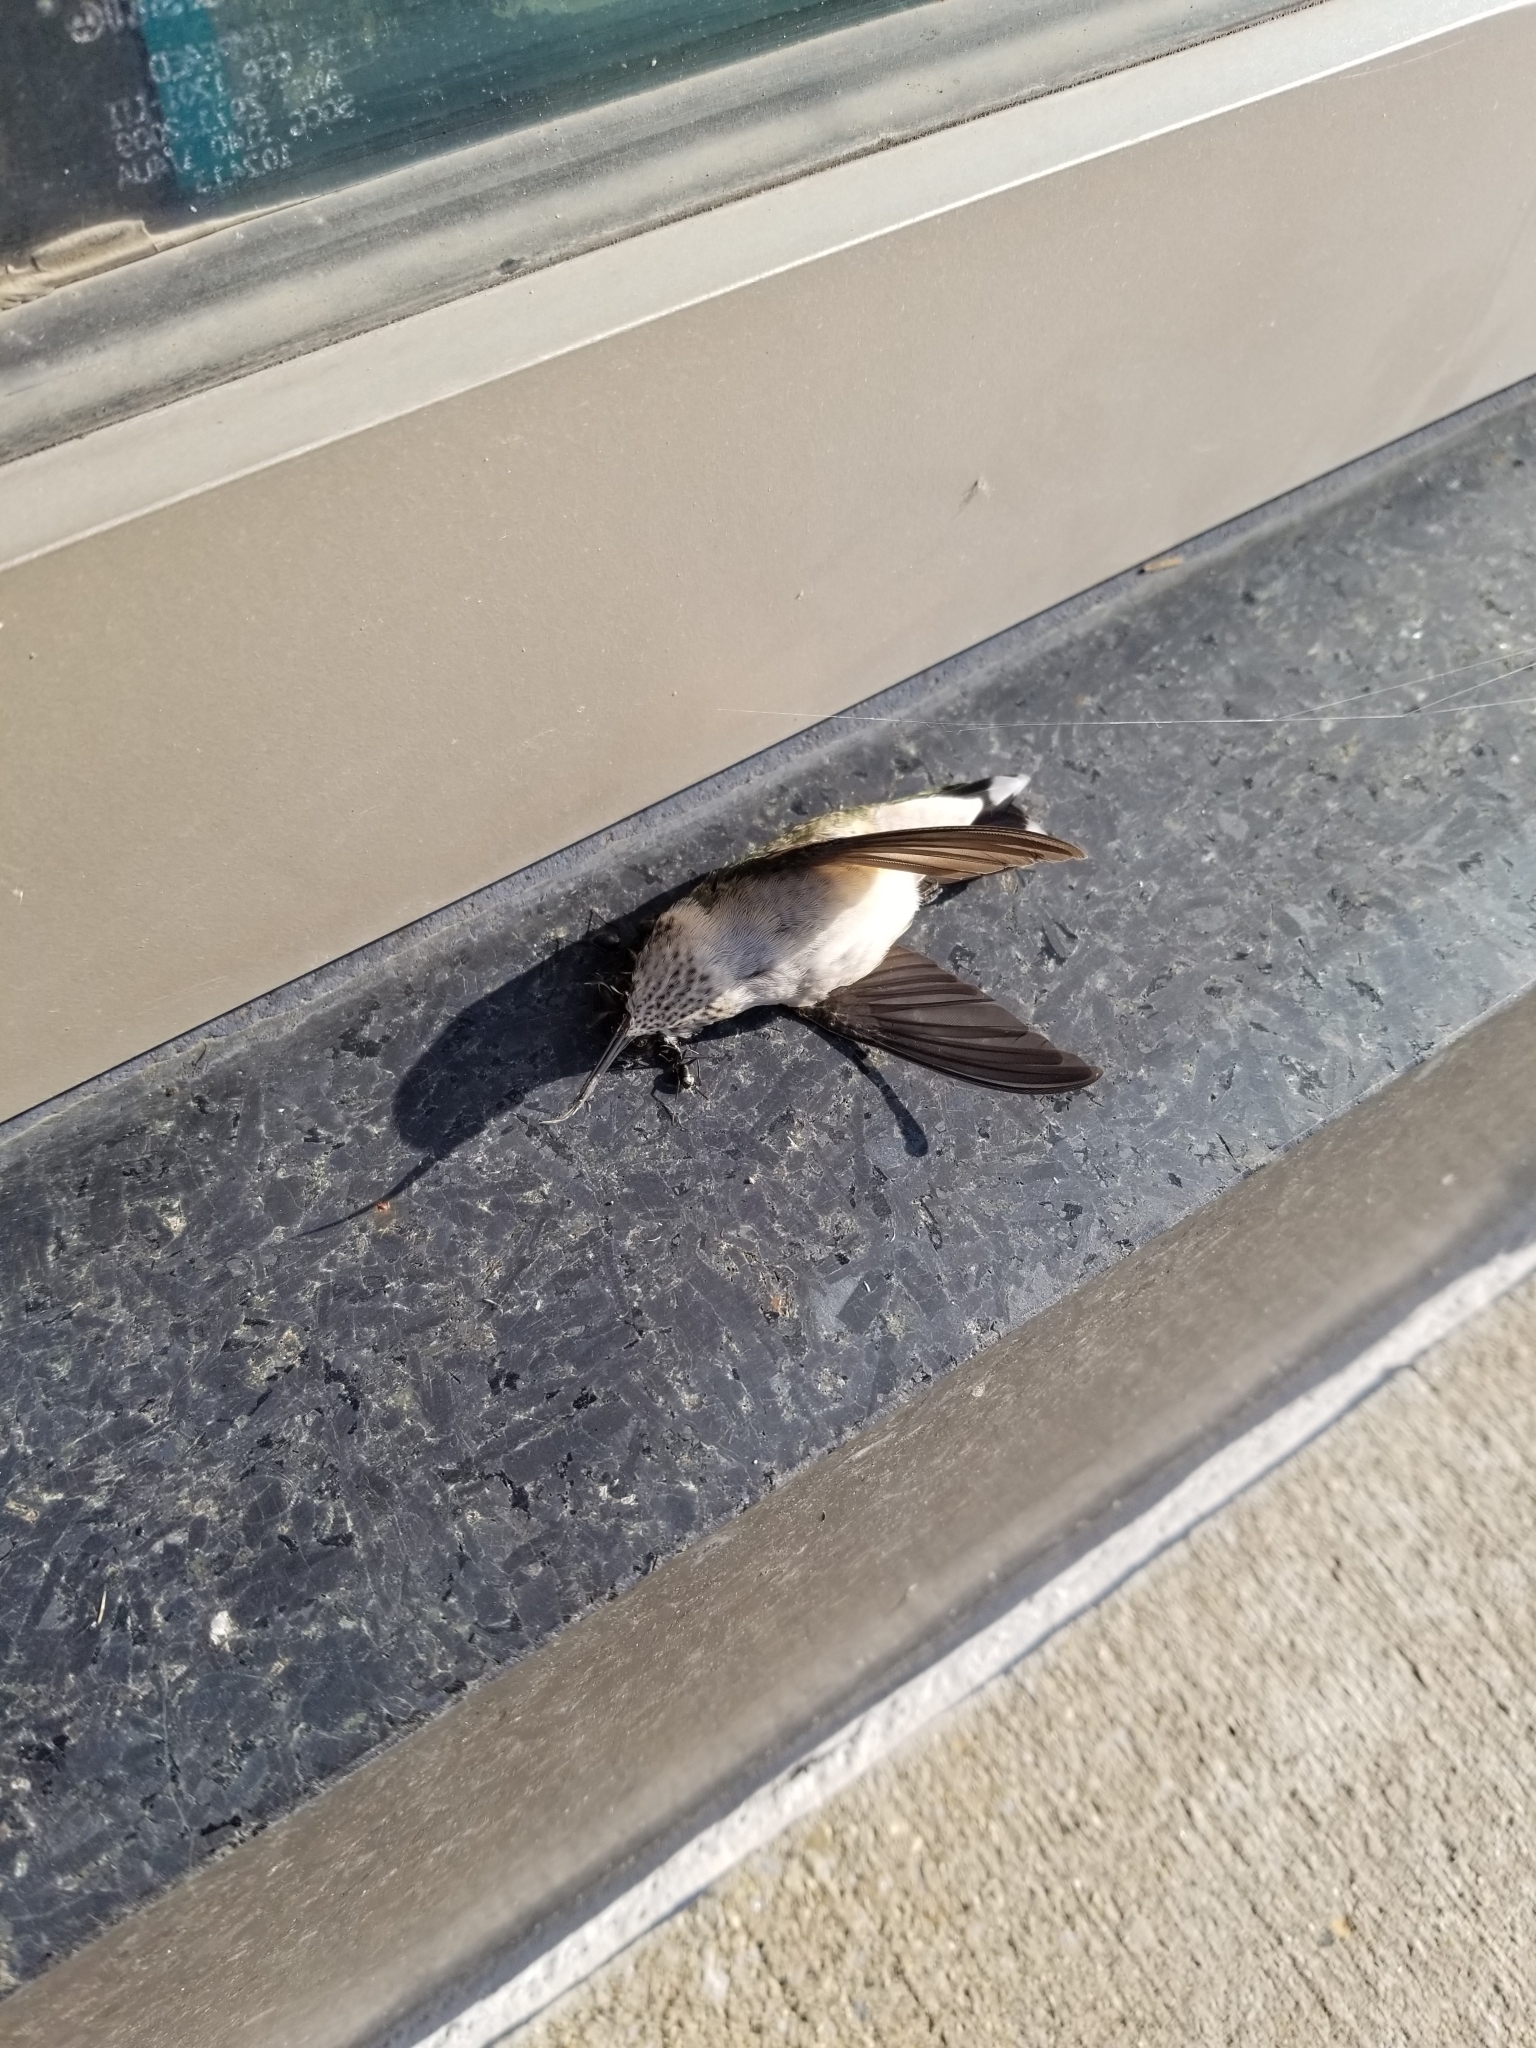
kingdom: Animalia
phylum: Chordata
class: Aves
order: Apodiformes
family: Trochilidae
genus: Archilochus
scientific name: Archilochus colubris
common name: Ruby-throated hummingbird
